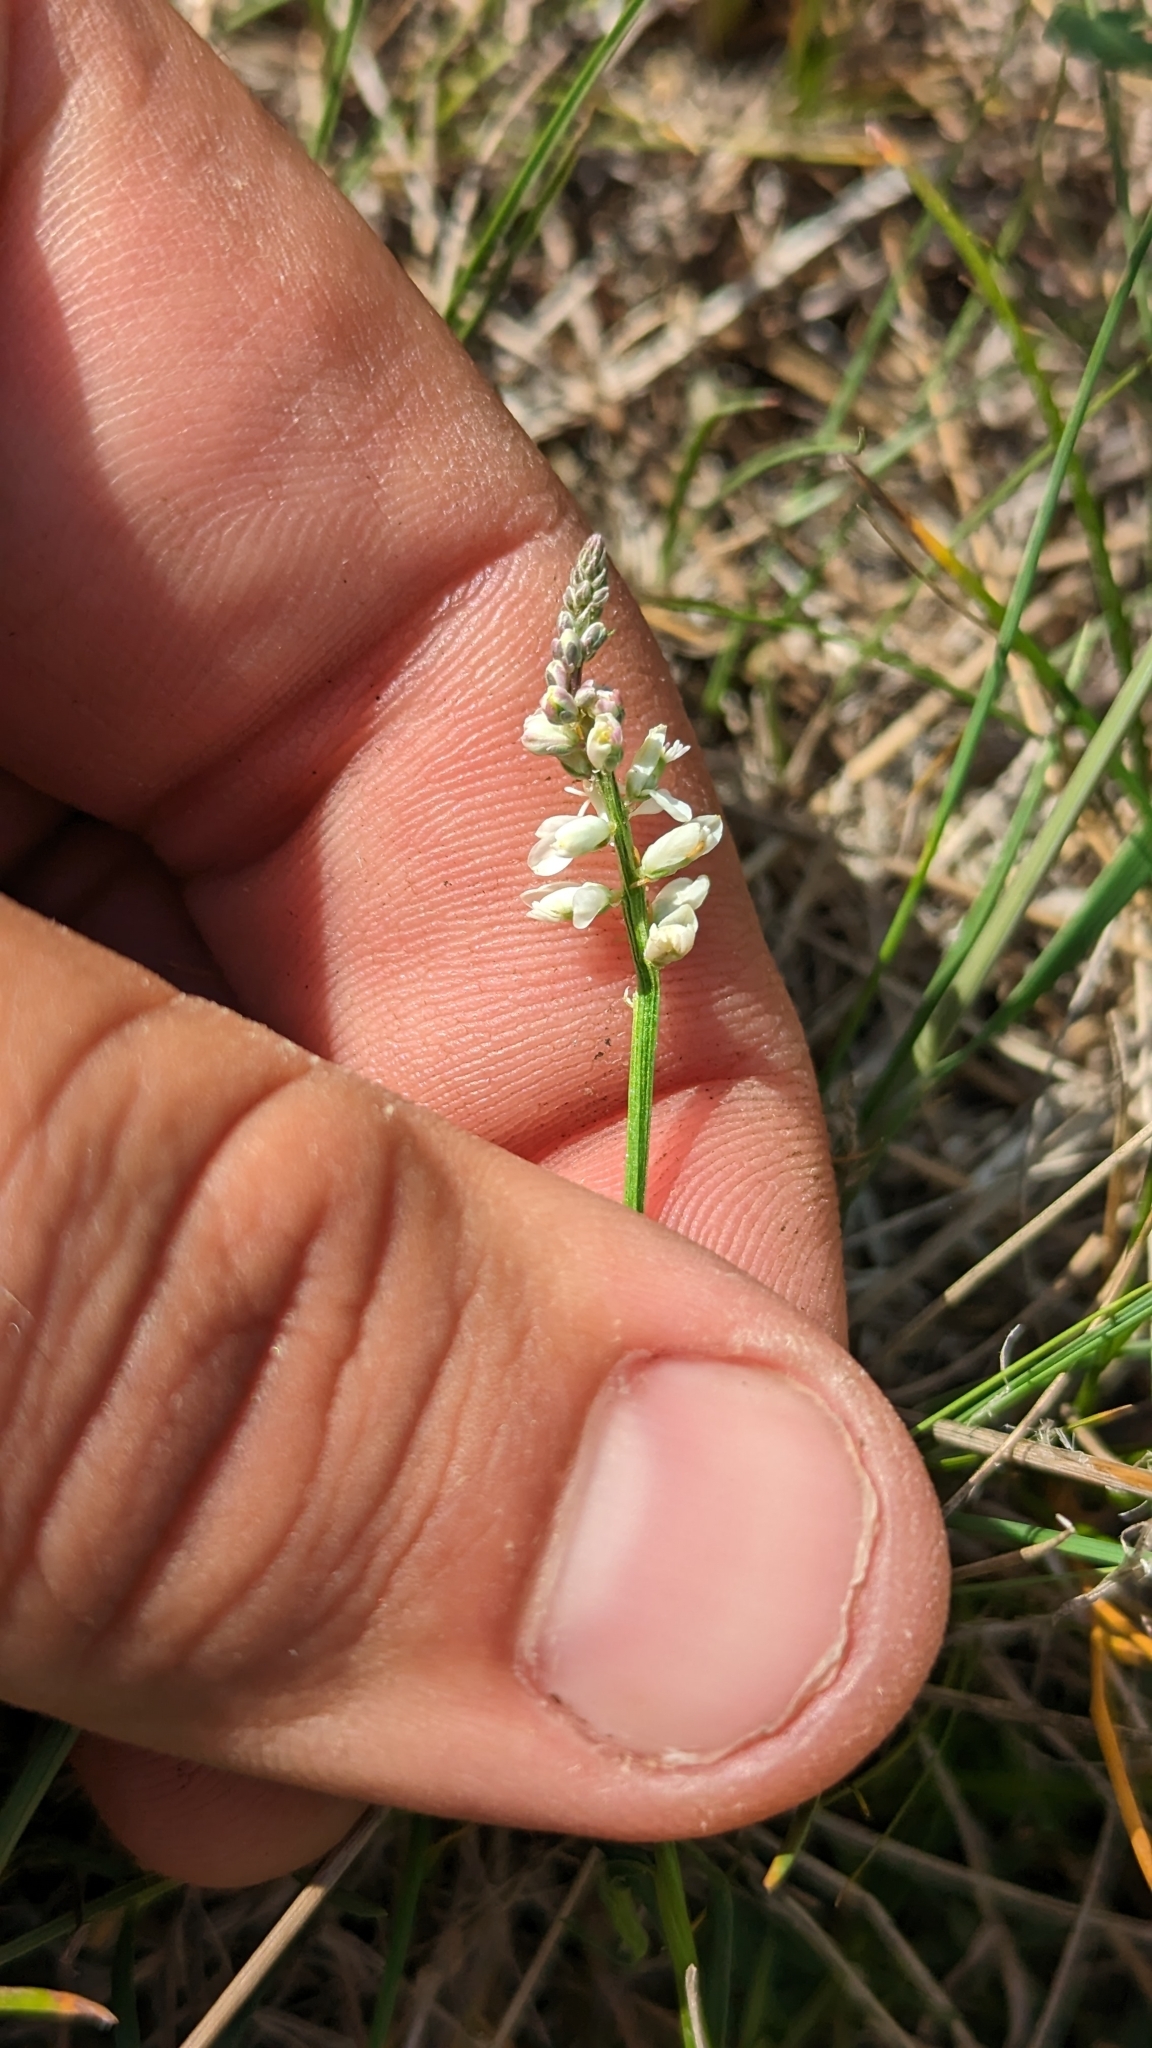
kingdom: Plantae
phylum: Tracheophyta
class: Magnoliopsida
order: Fabales
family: Polygalaceae
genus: Polygala
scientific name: Polygala alba
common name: White milkwort
